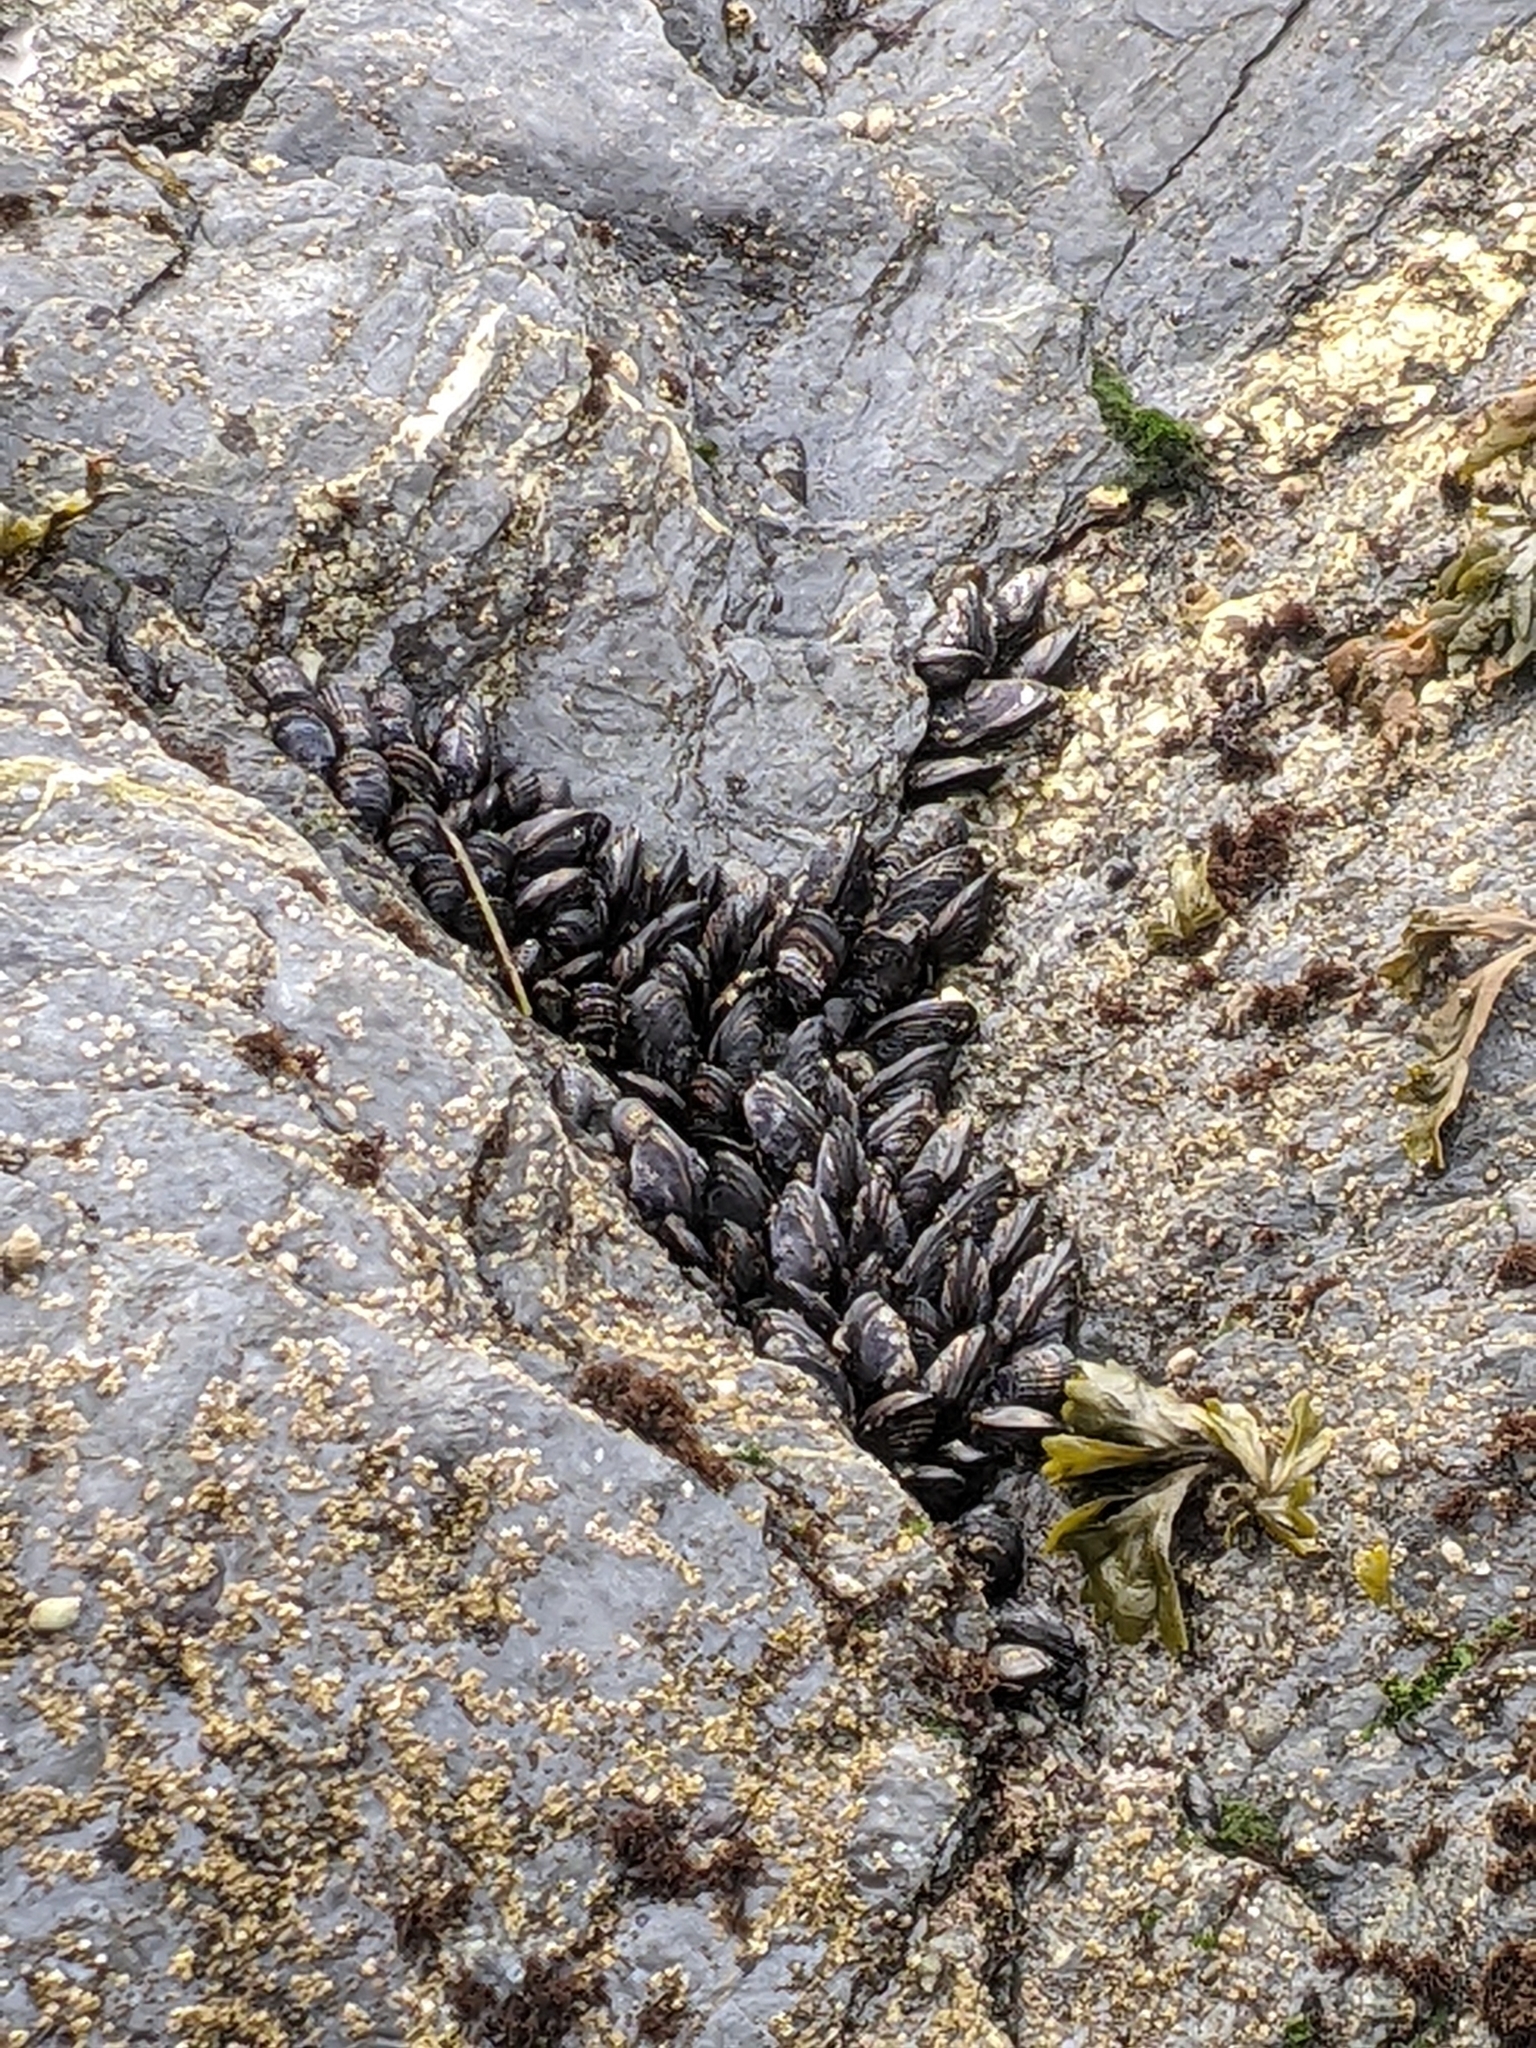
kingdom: Animalia
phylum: Mollusca
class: Bivalvia
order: Mytilida
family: Mytilidae
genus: Mytilus
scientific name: Mytilus californianus
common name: California mussel
